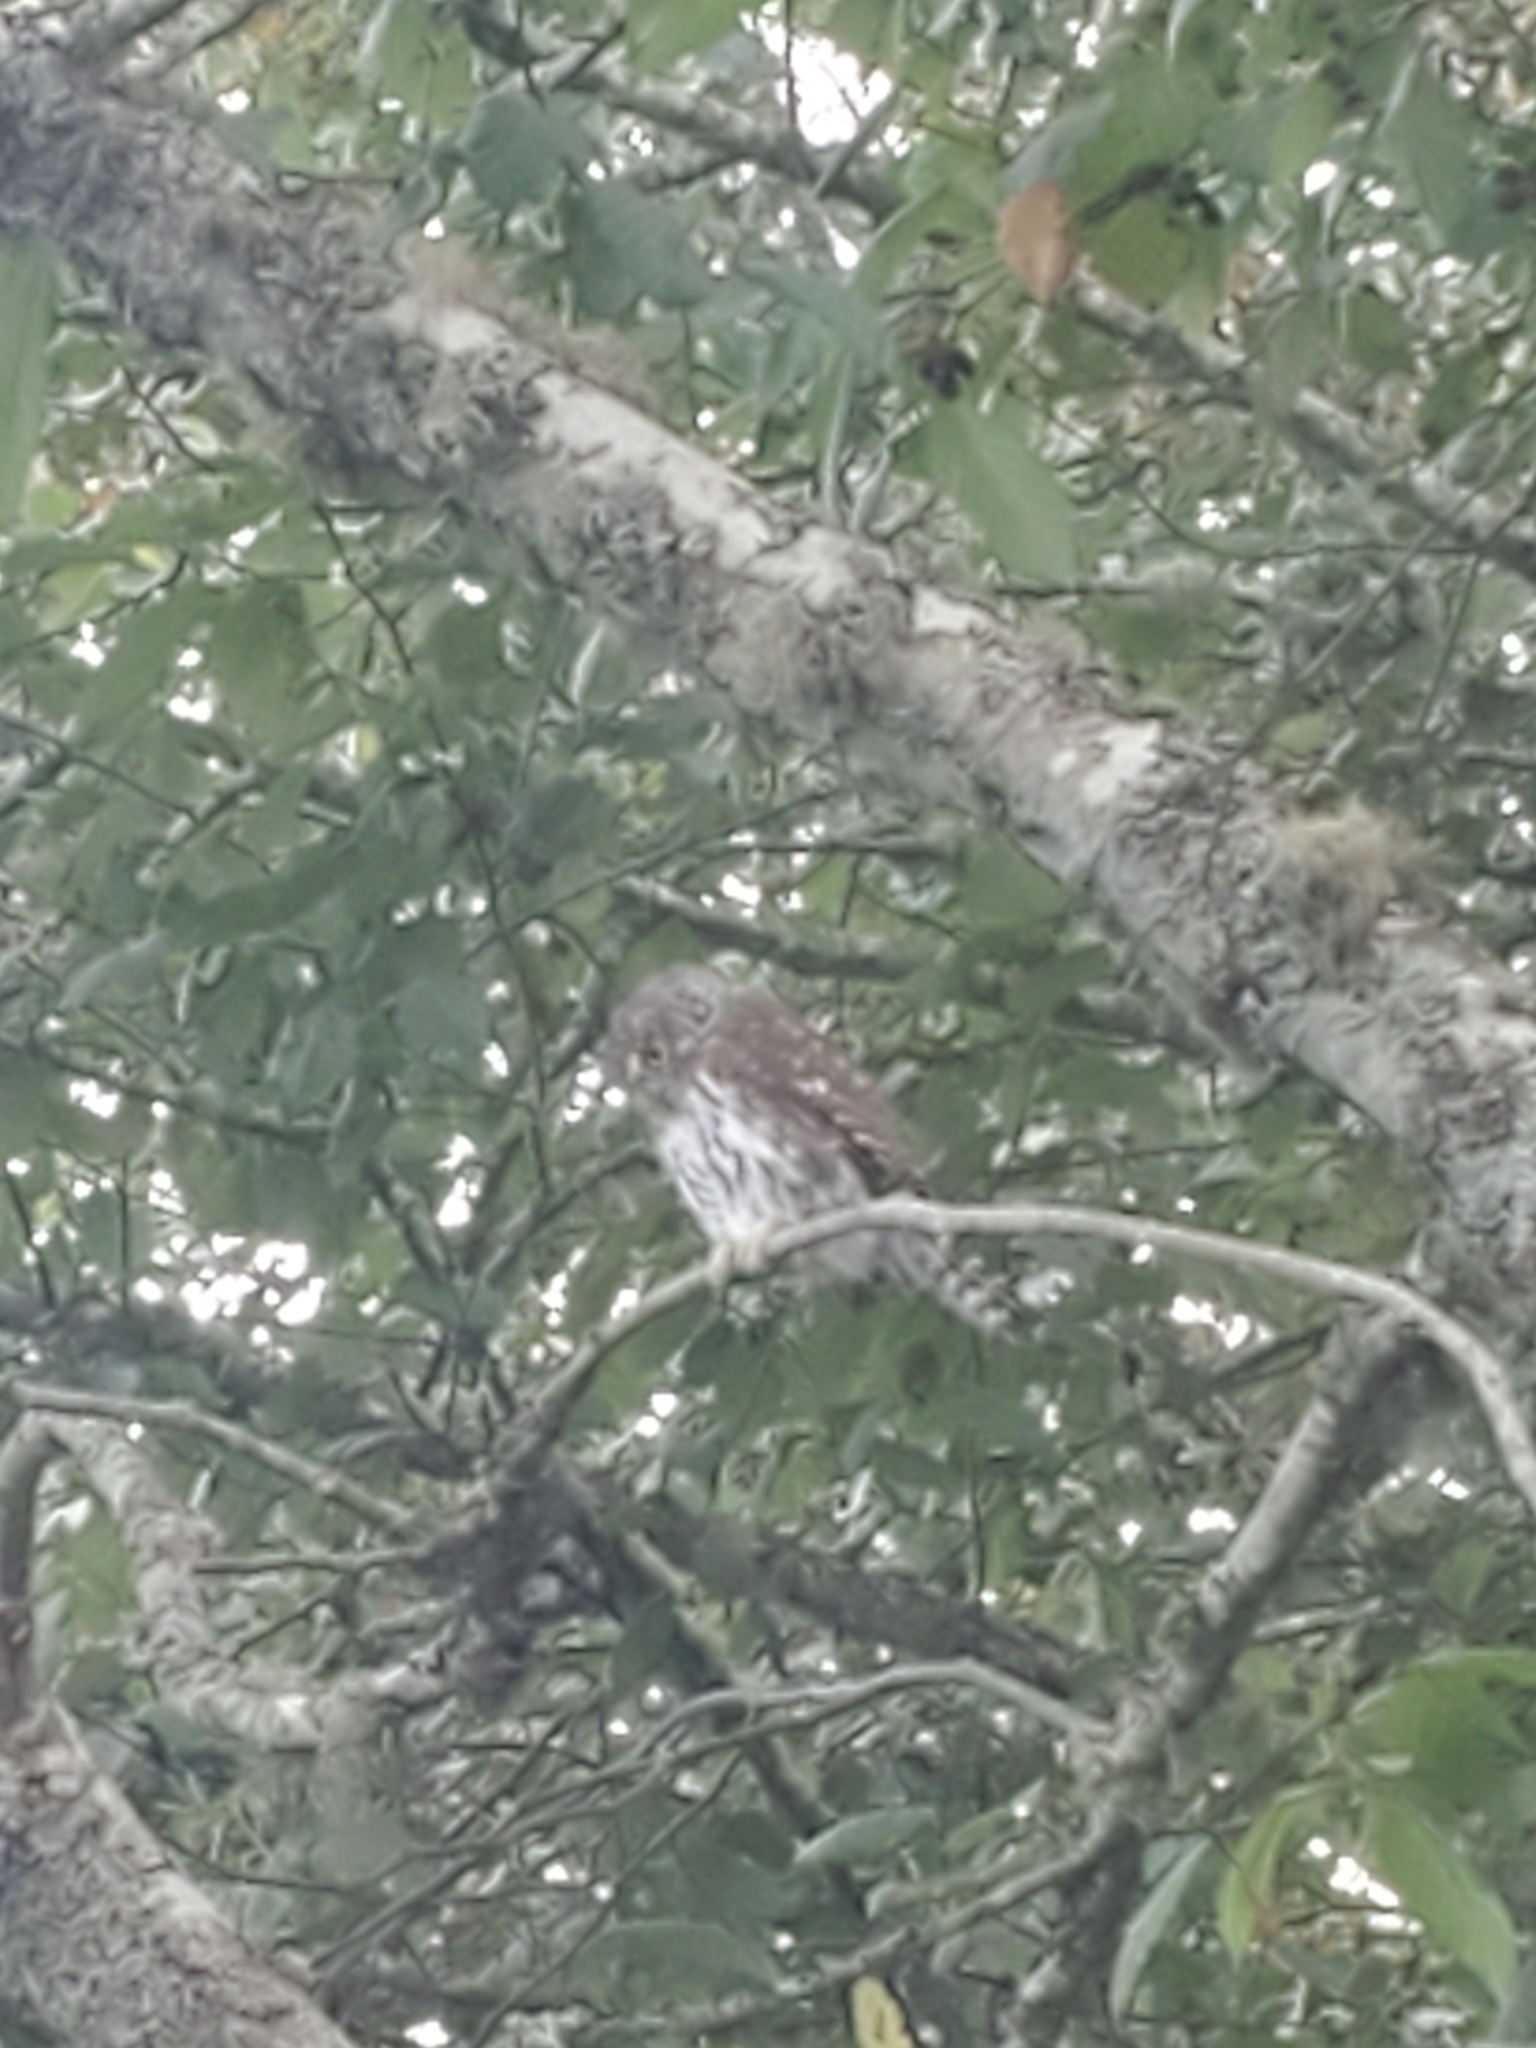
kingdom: Animalia
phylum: Chordata
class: Aves
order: Strigiformes
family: Strigidae
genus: Glaucidium
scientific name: Glaucidium gnoma
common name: Northern pygmy-owl
